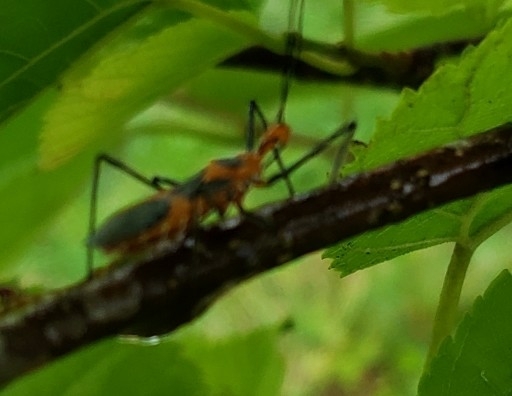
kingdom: Animalia
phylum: Arthropoda
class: Insecta
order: Hemiptera
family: Reduviidae
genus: Zelus
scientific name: Zelus longipes
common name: Milkweed assassin bug
